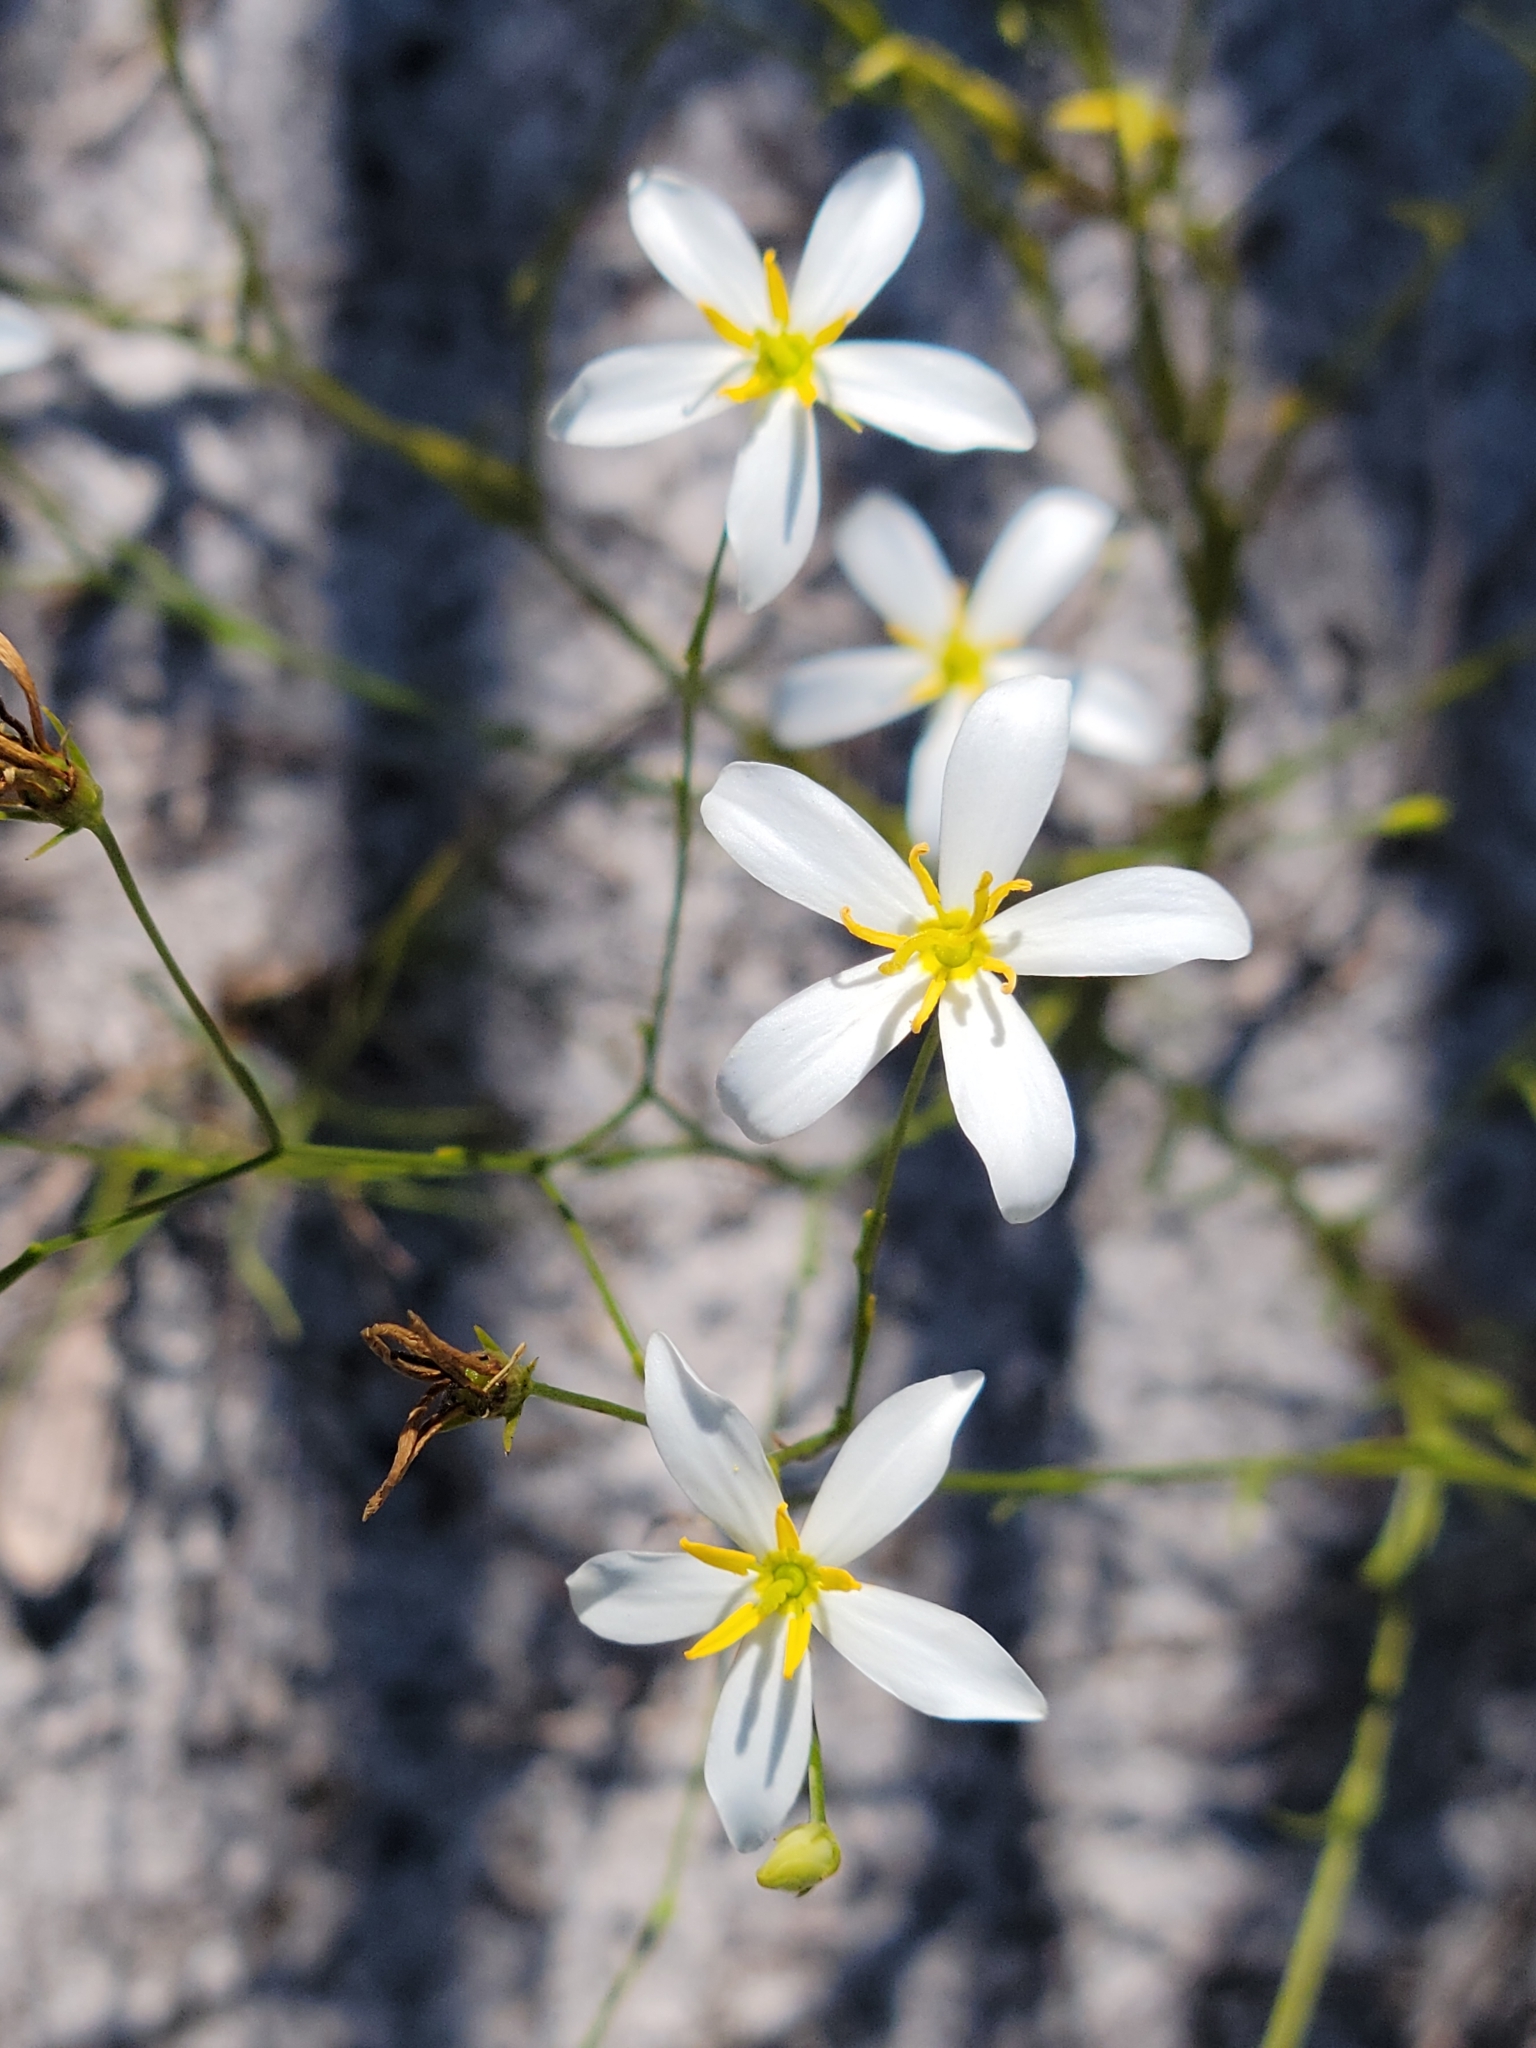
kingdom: Plantae
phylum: Tracheophyta
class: Magnoliopsida
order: Gentianales
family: Gentianaceae
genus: Sabatia
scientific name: Sabatia brevifolia
